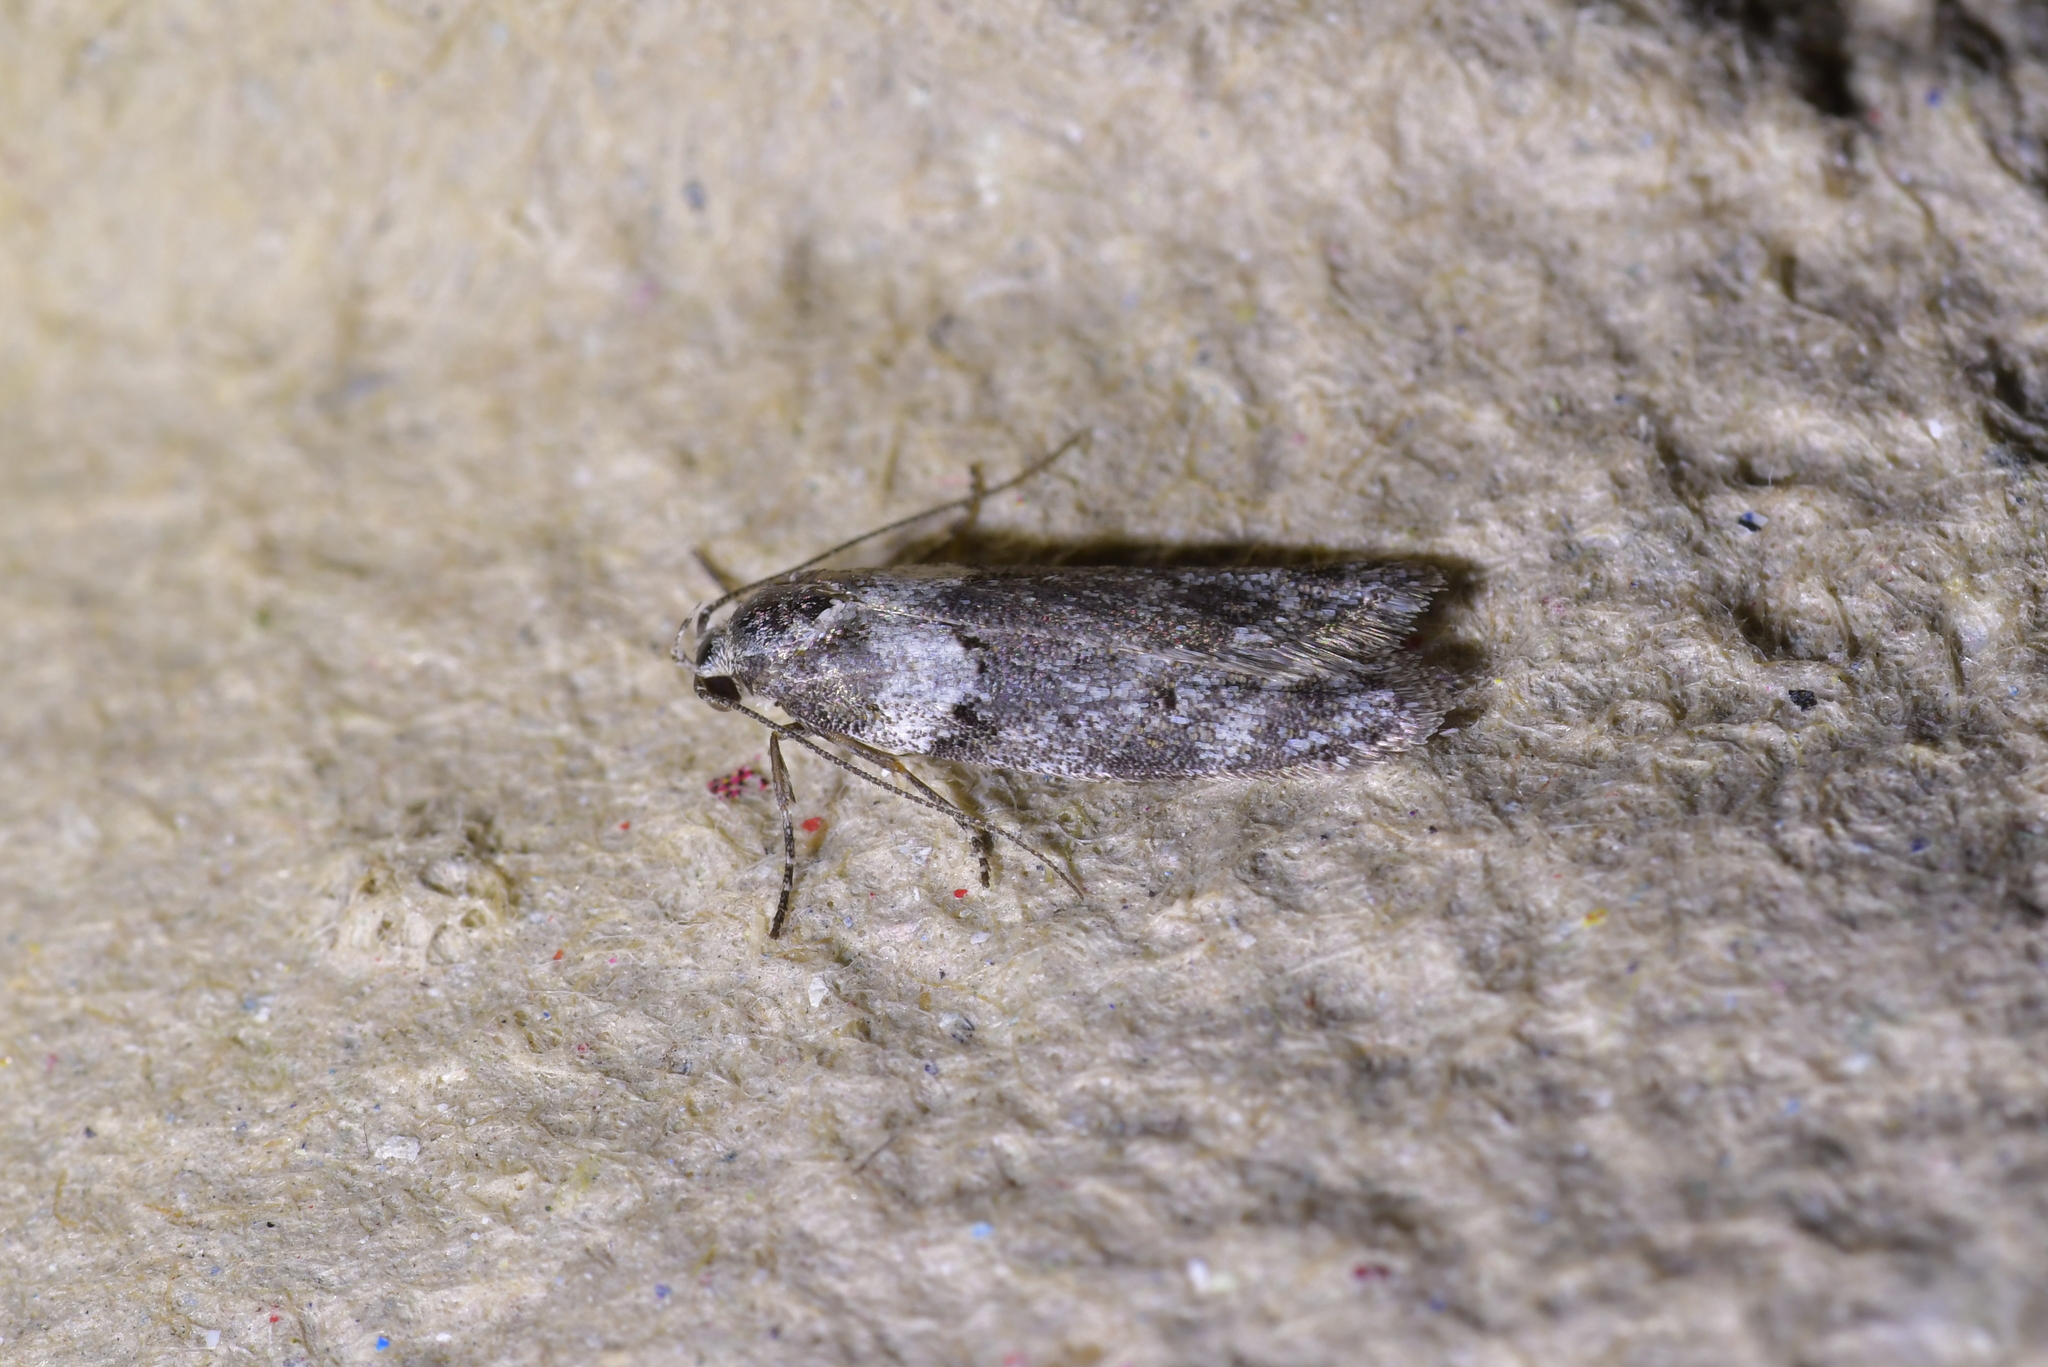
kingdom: Animalia
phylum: Arthropoda
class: Insecta
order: Lepidoptera
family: Oecophoridae
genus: Izatha
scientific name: Izatha convulsella
